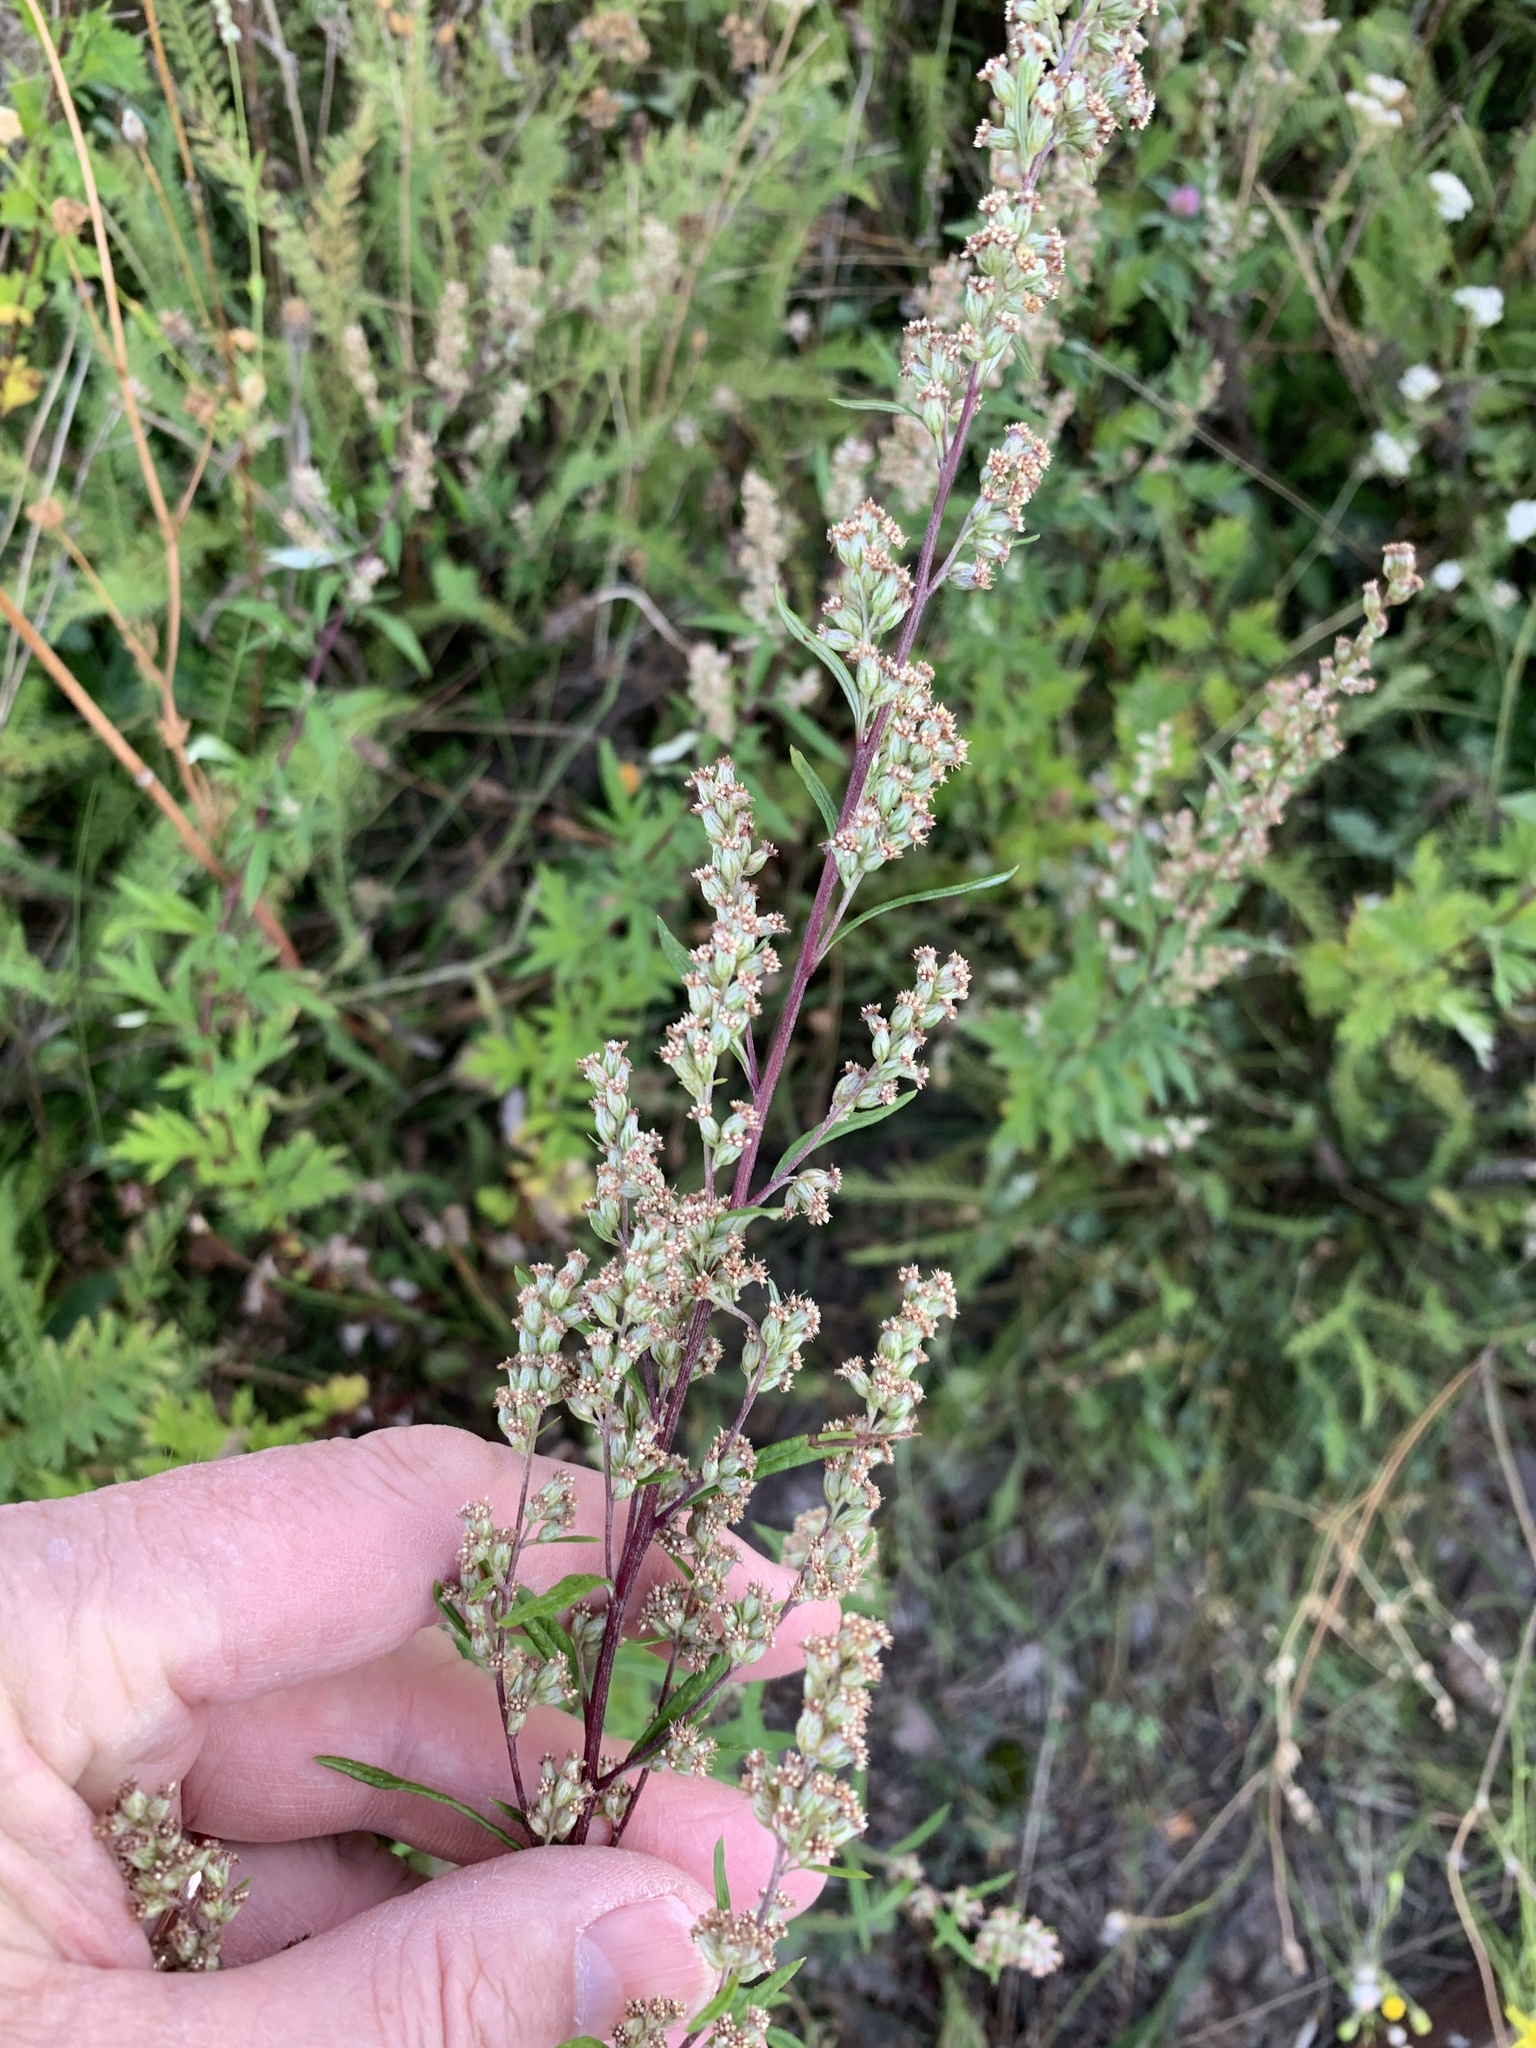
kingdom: Plantae
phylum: Tracheophyta
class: Magnoliopsida
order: Asterales
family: Asteraceae
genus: Artemisia
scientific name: Artemisia vulgaris
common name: Mugwort
